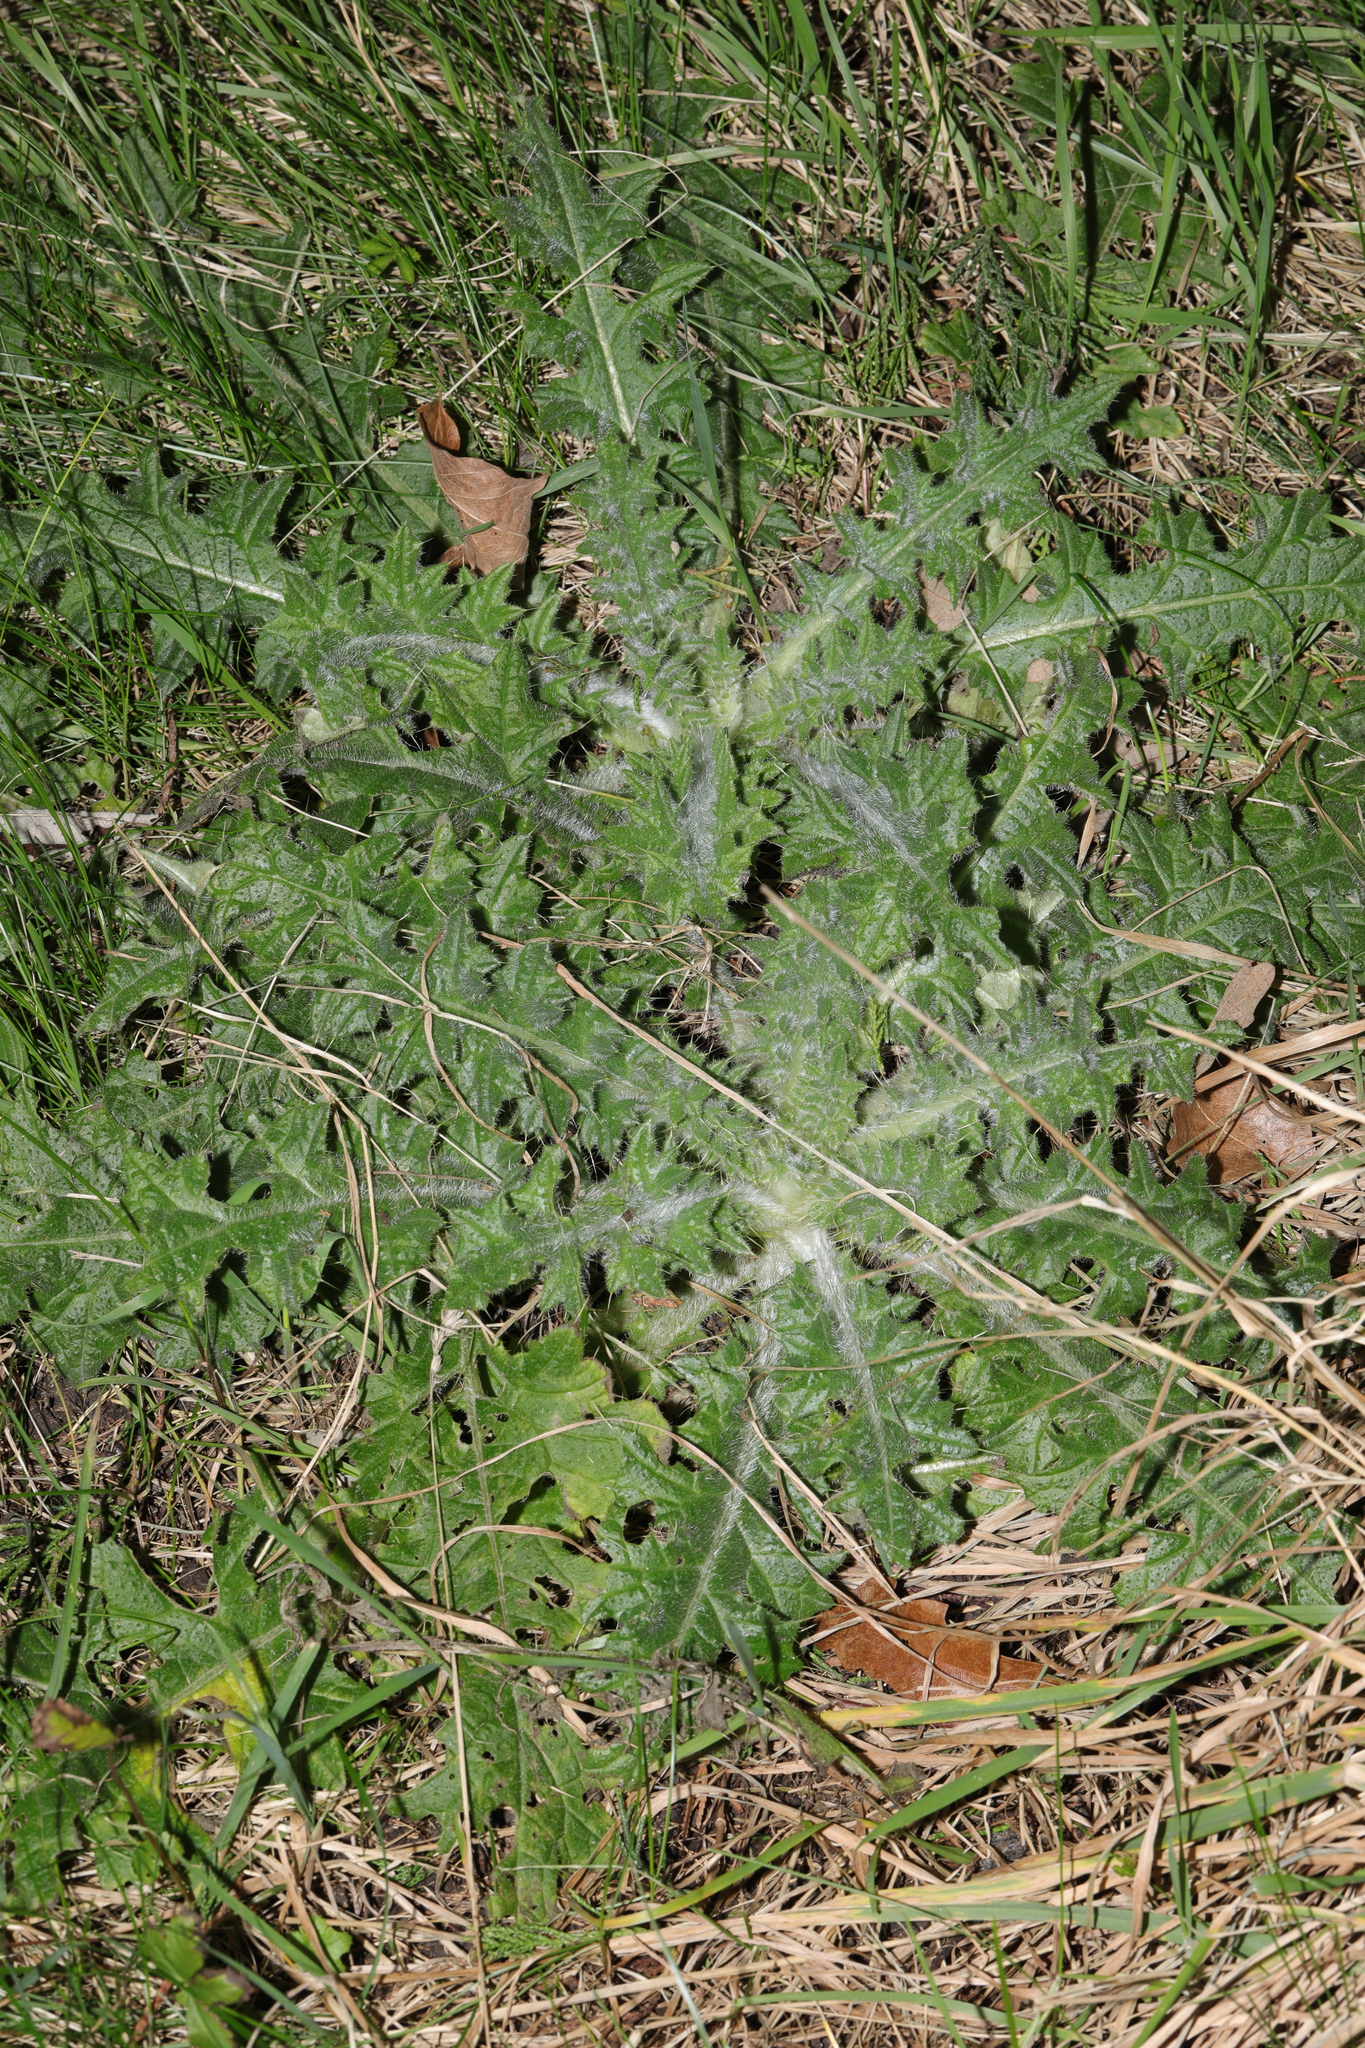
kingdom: Plantae
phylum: Tracheophyta
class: Magnoliopsida
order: Asterales
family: Asteraceae
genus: Cirsium
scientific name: Cirsium vulgare
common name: Bull thistle
